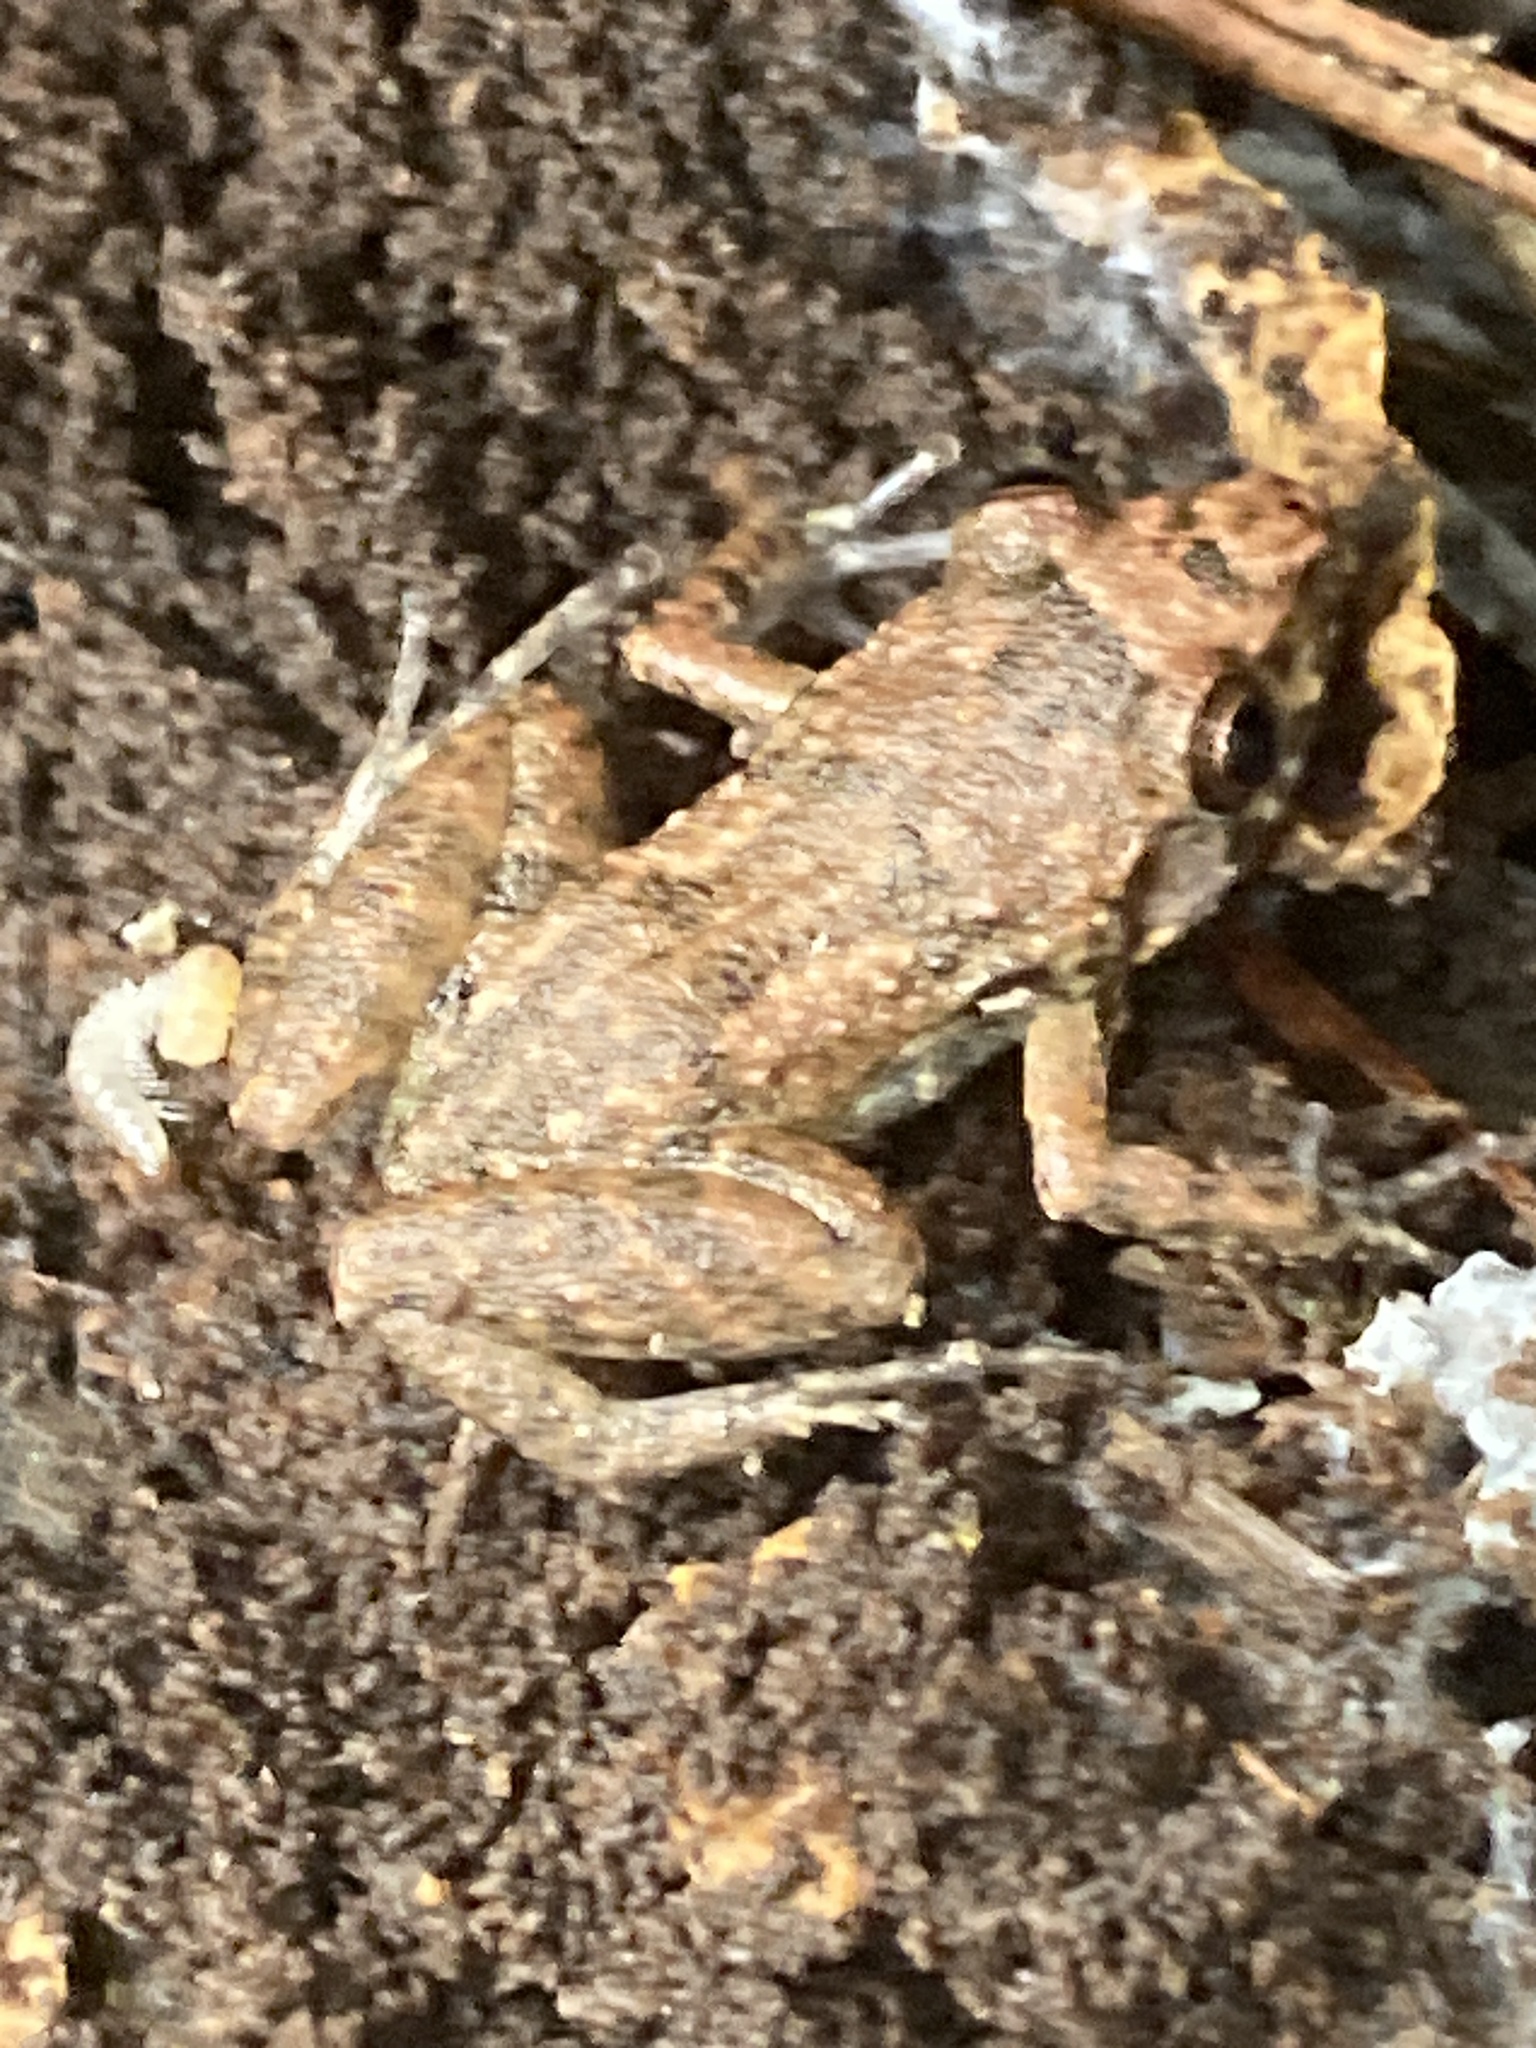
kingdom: Animalia
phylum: Chordata
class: Amphibia
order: Anura
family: Eleutherodactylidae
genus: Eleutherodactylus
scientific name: Eleutherodactylus planirostris
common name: Greenhouse frog
